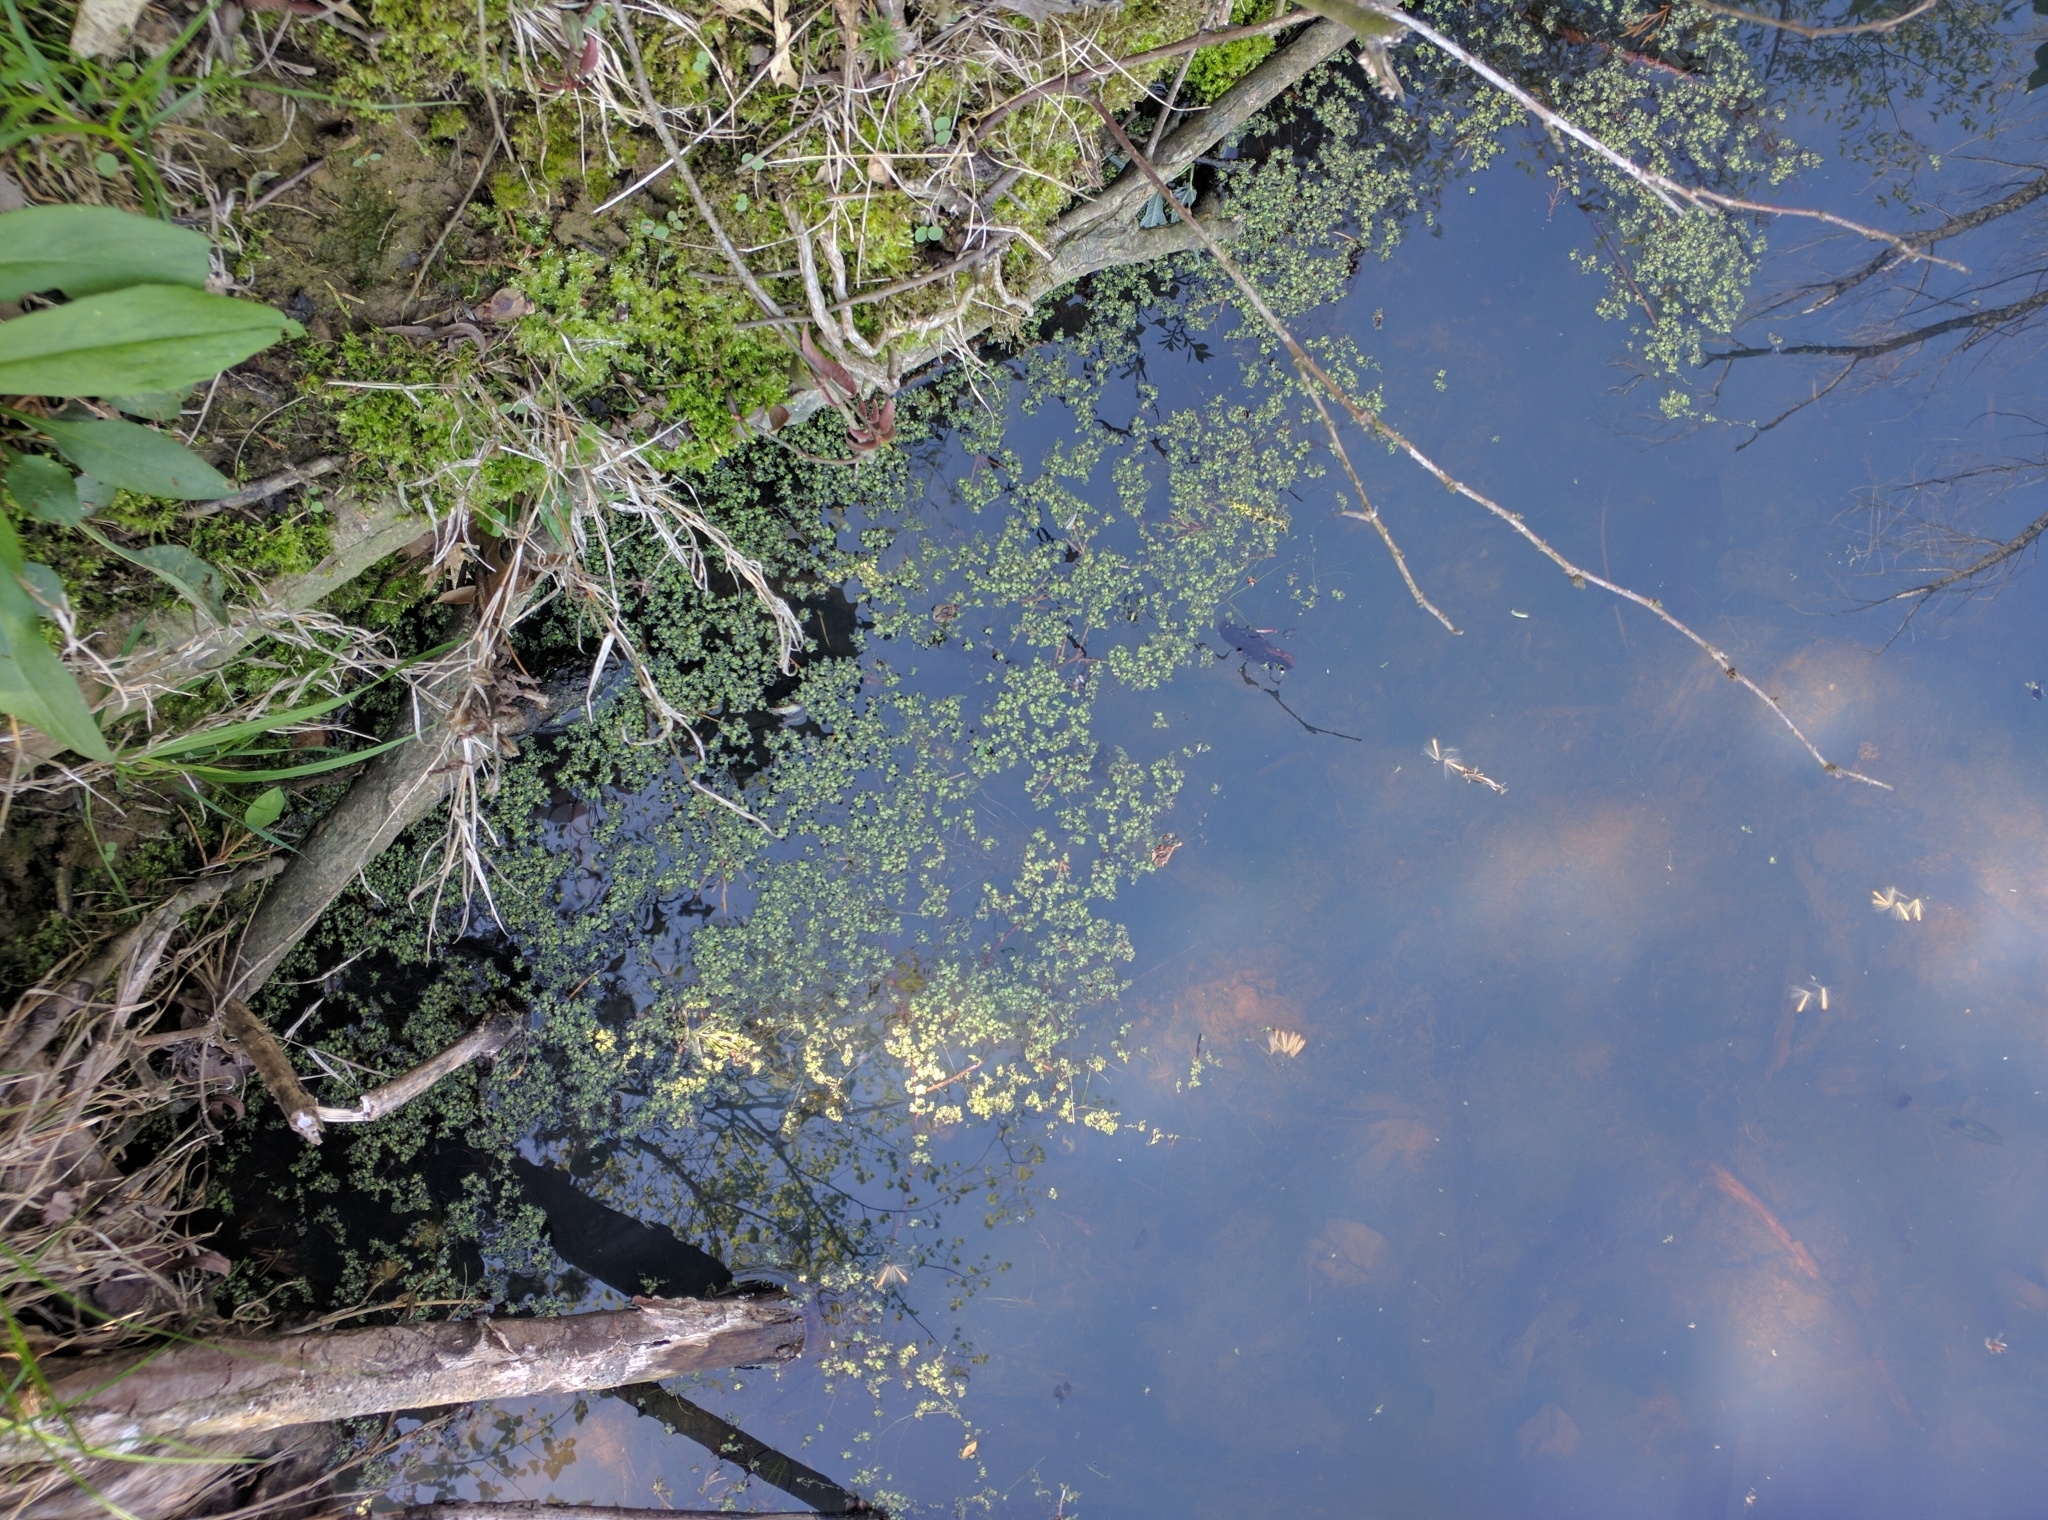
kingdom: Plantae
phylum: Tracheophyta
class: Liliopsida
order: Alismatales
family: Araceae
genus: Lemna
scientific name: Lemna minor
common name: Common duckweed
